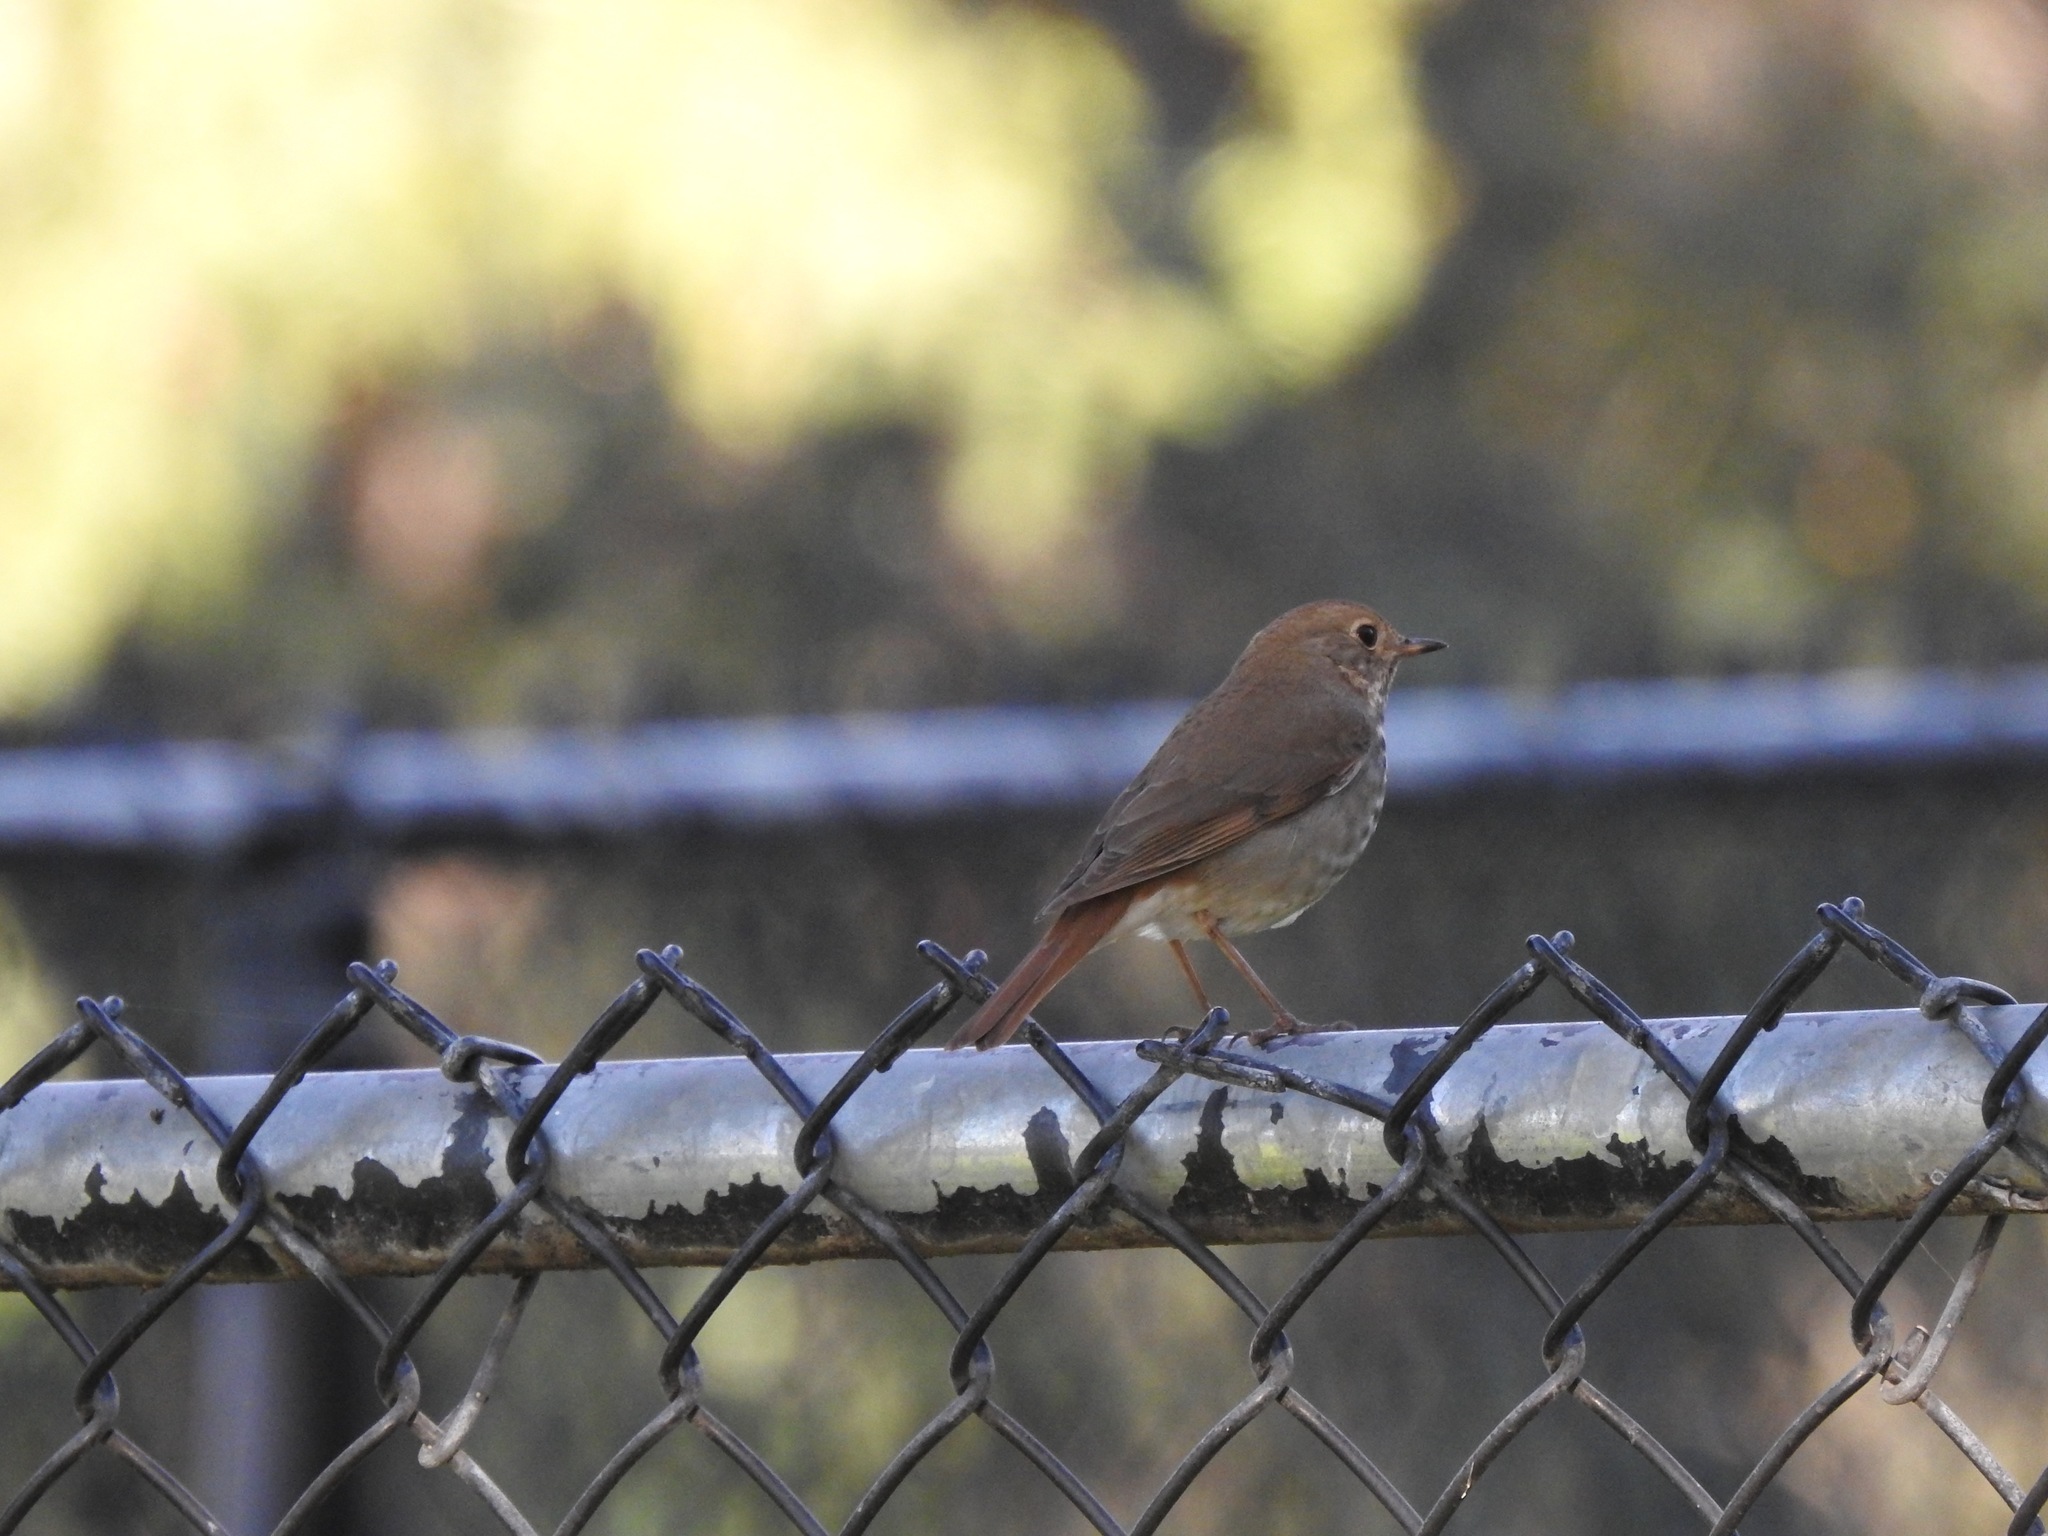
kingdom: Animalia
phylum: Chordata
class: Aves
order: Passeriformes
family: Turdidae
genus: Catharus
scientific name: Catharus guttatus
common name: Hermit thrush
